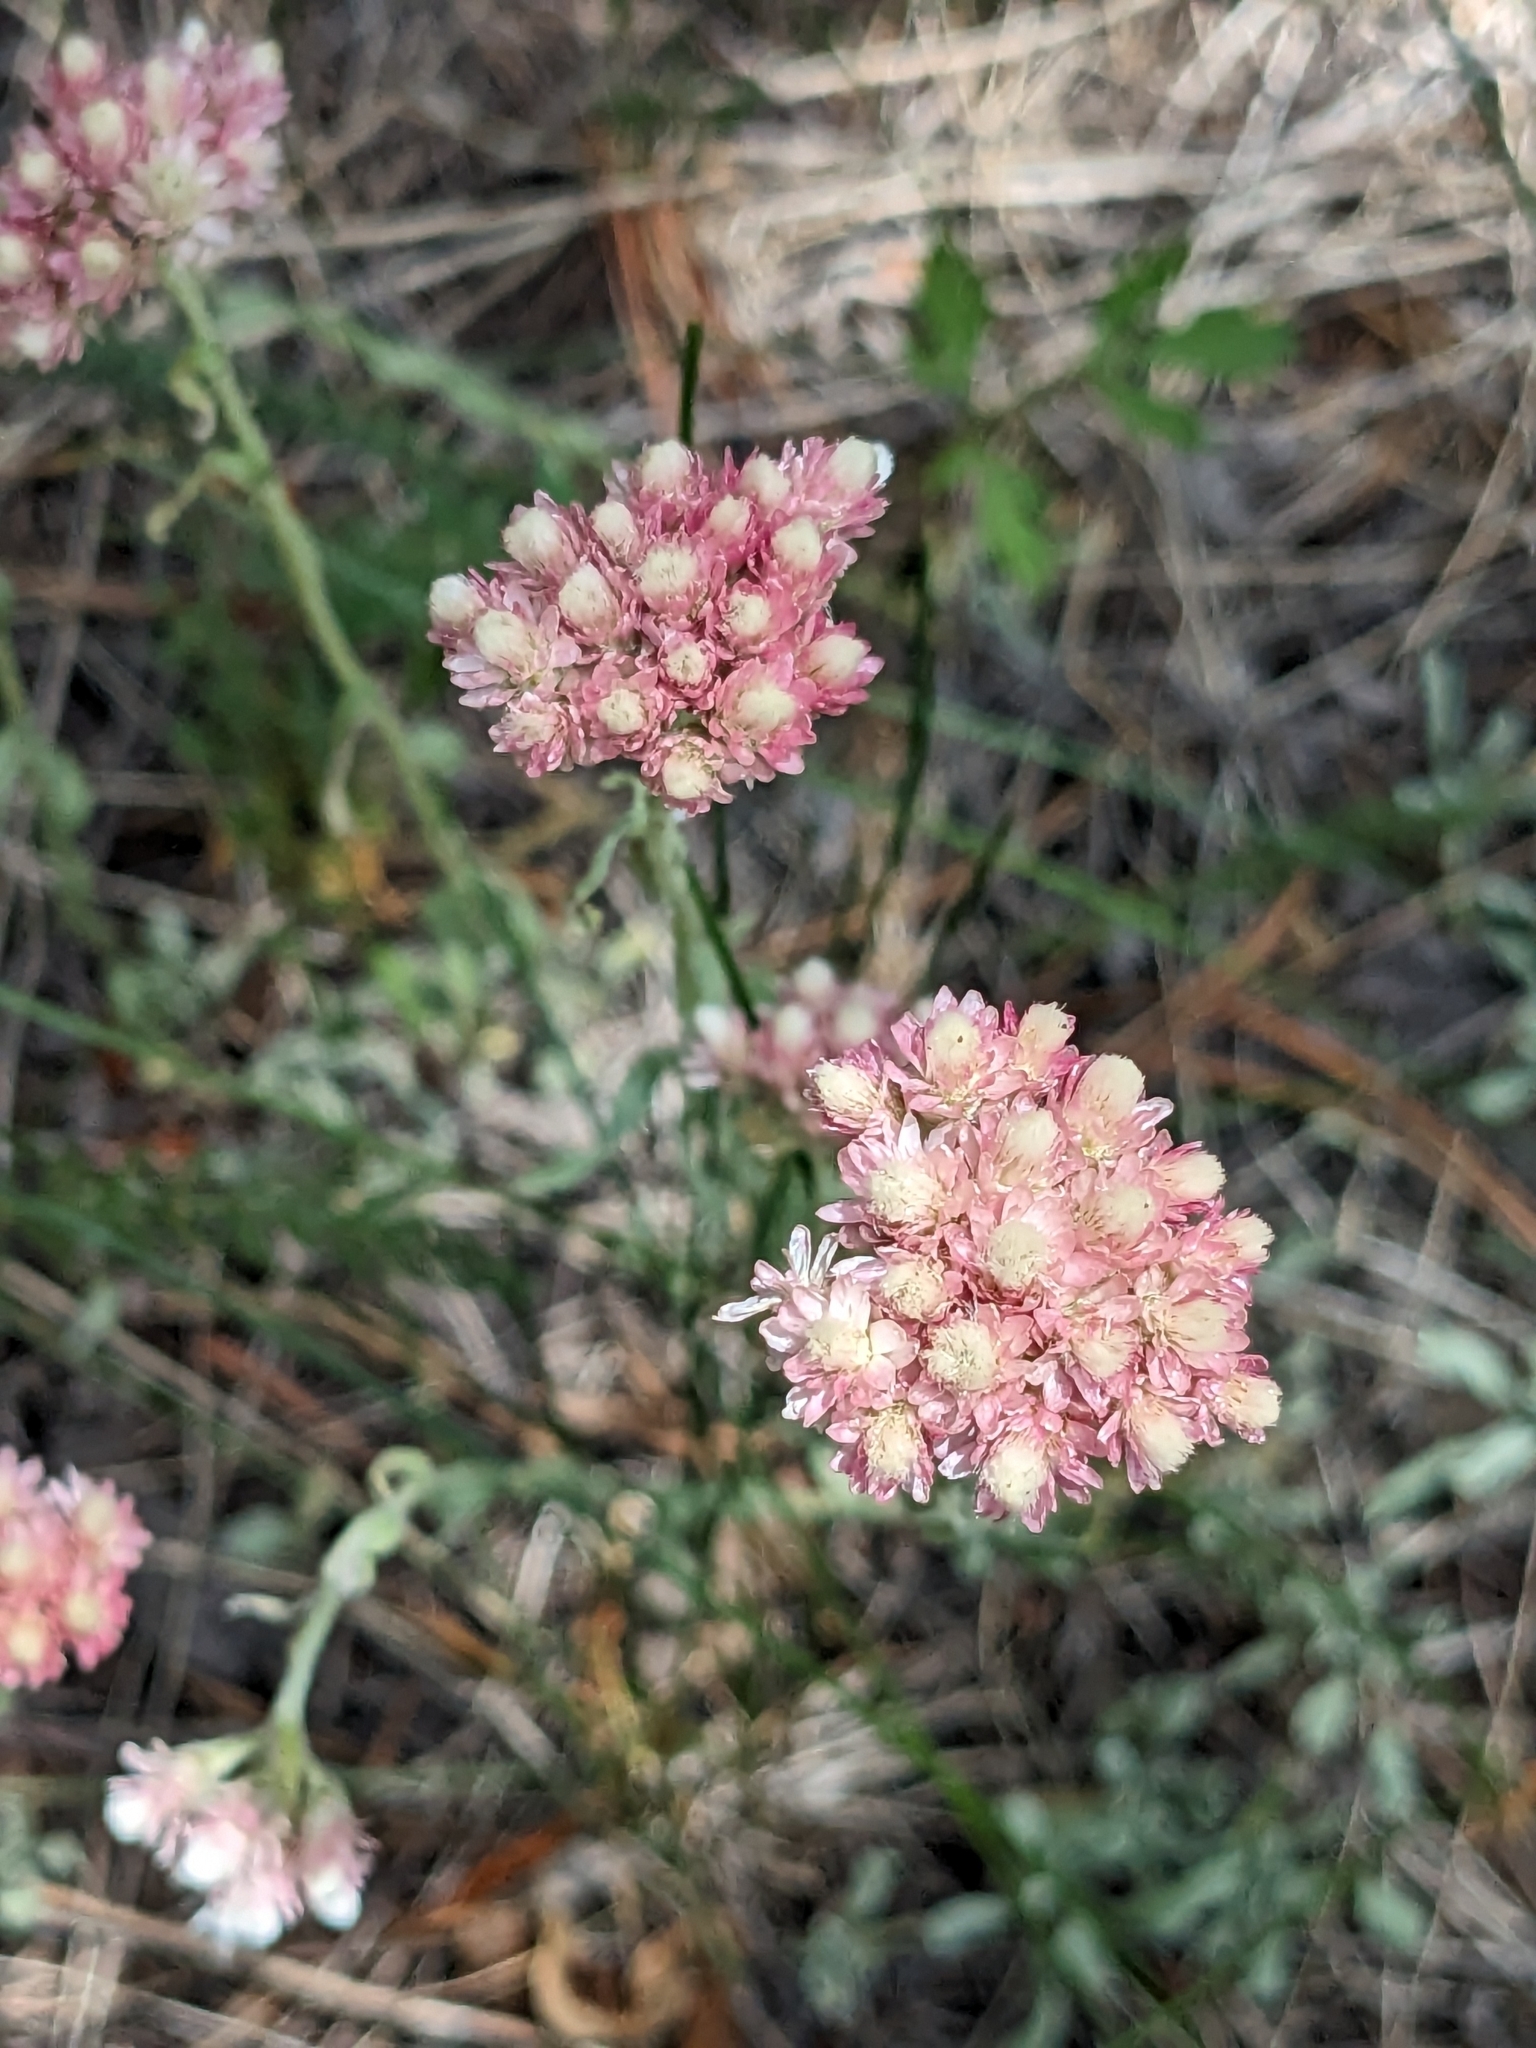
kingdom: Plantae
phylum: Tracheophyta
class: Magnoliopsida
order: Asterales
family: Asteraceae
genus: Antennaria
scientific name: Antennaria rosea
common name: Rosy pussytoes
